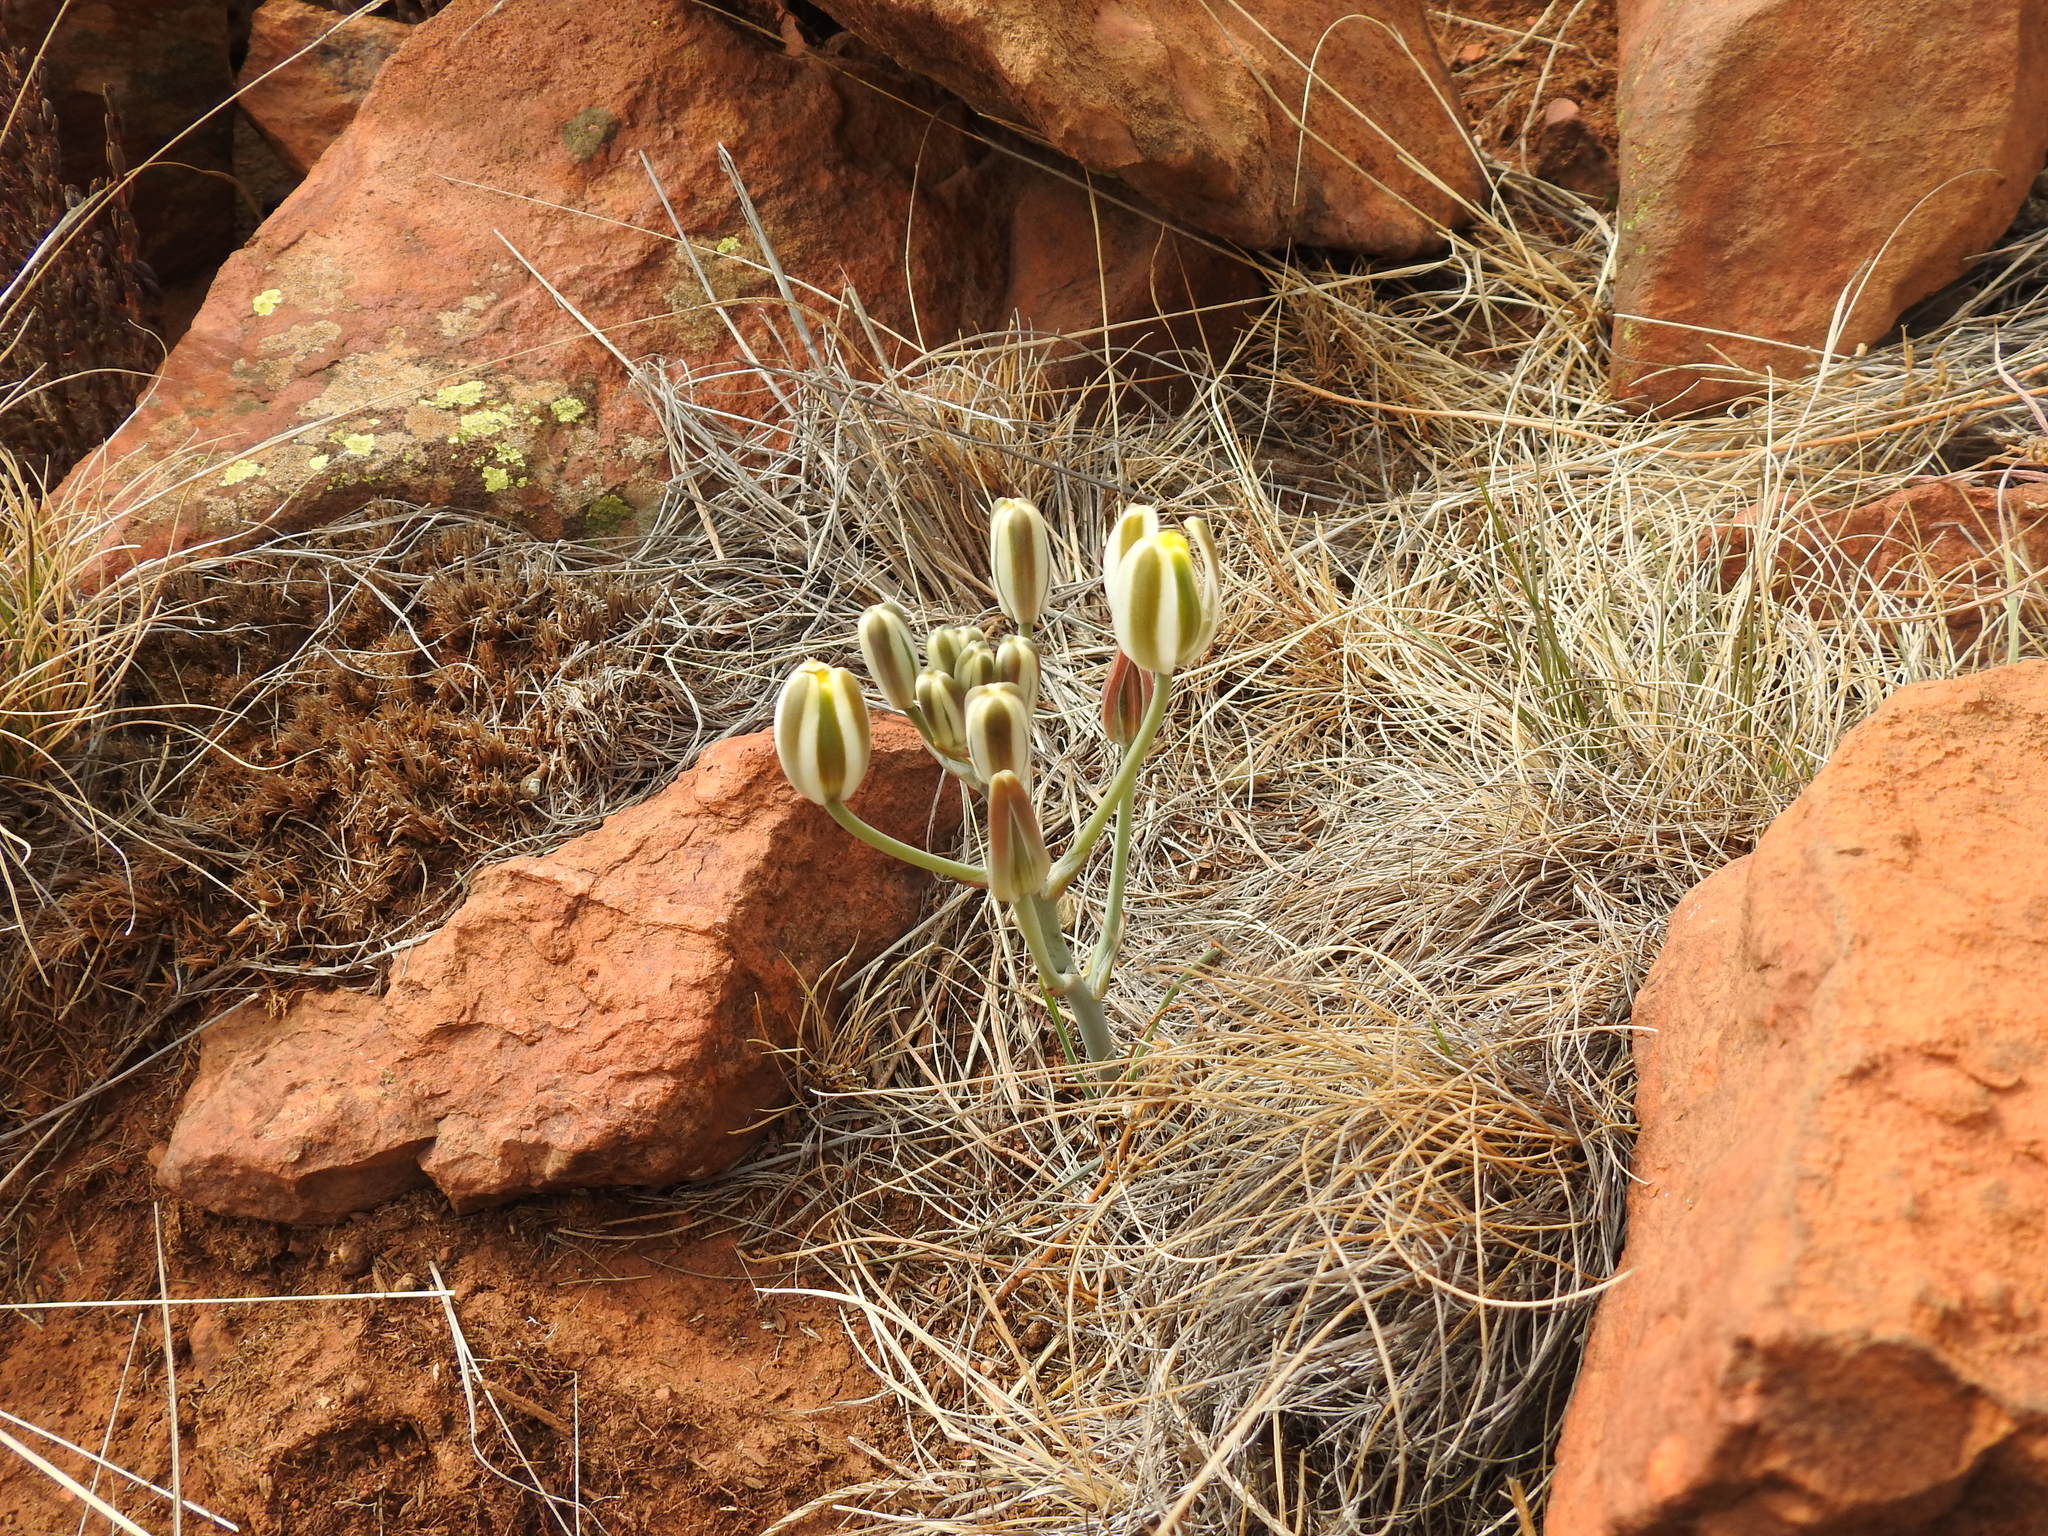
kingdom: Plantae
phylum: Tracheophyta
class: Liliopsida
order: Asparagales
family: Asparagaceae
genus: Albuca
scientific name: Albuca setosa
